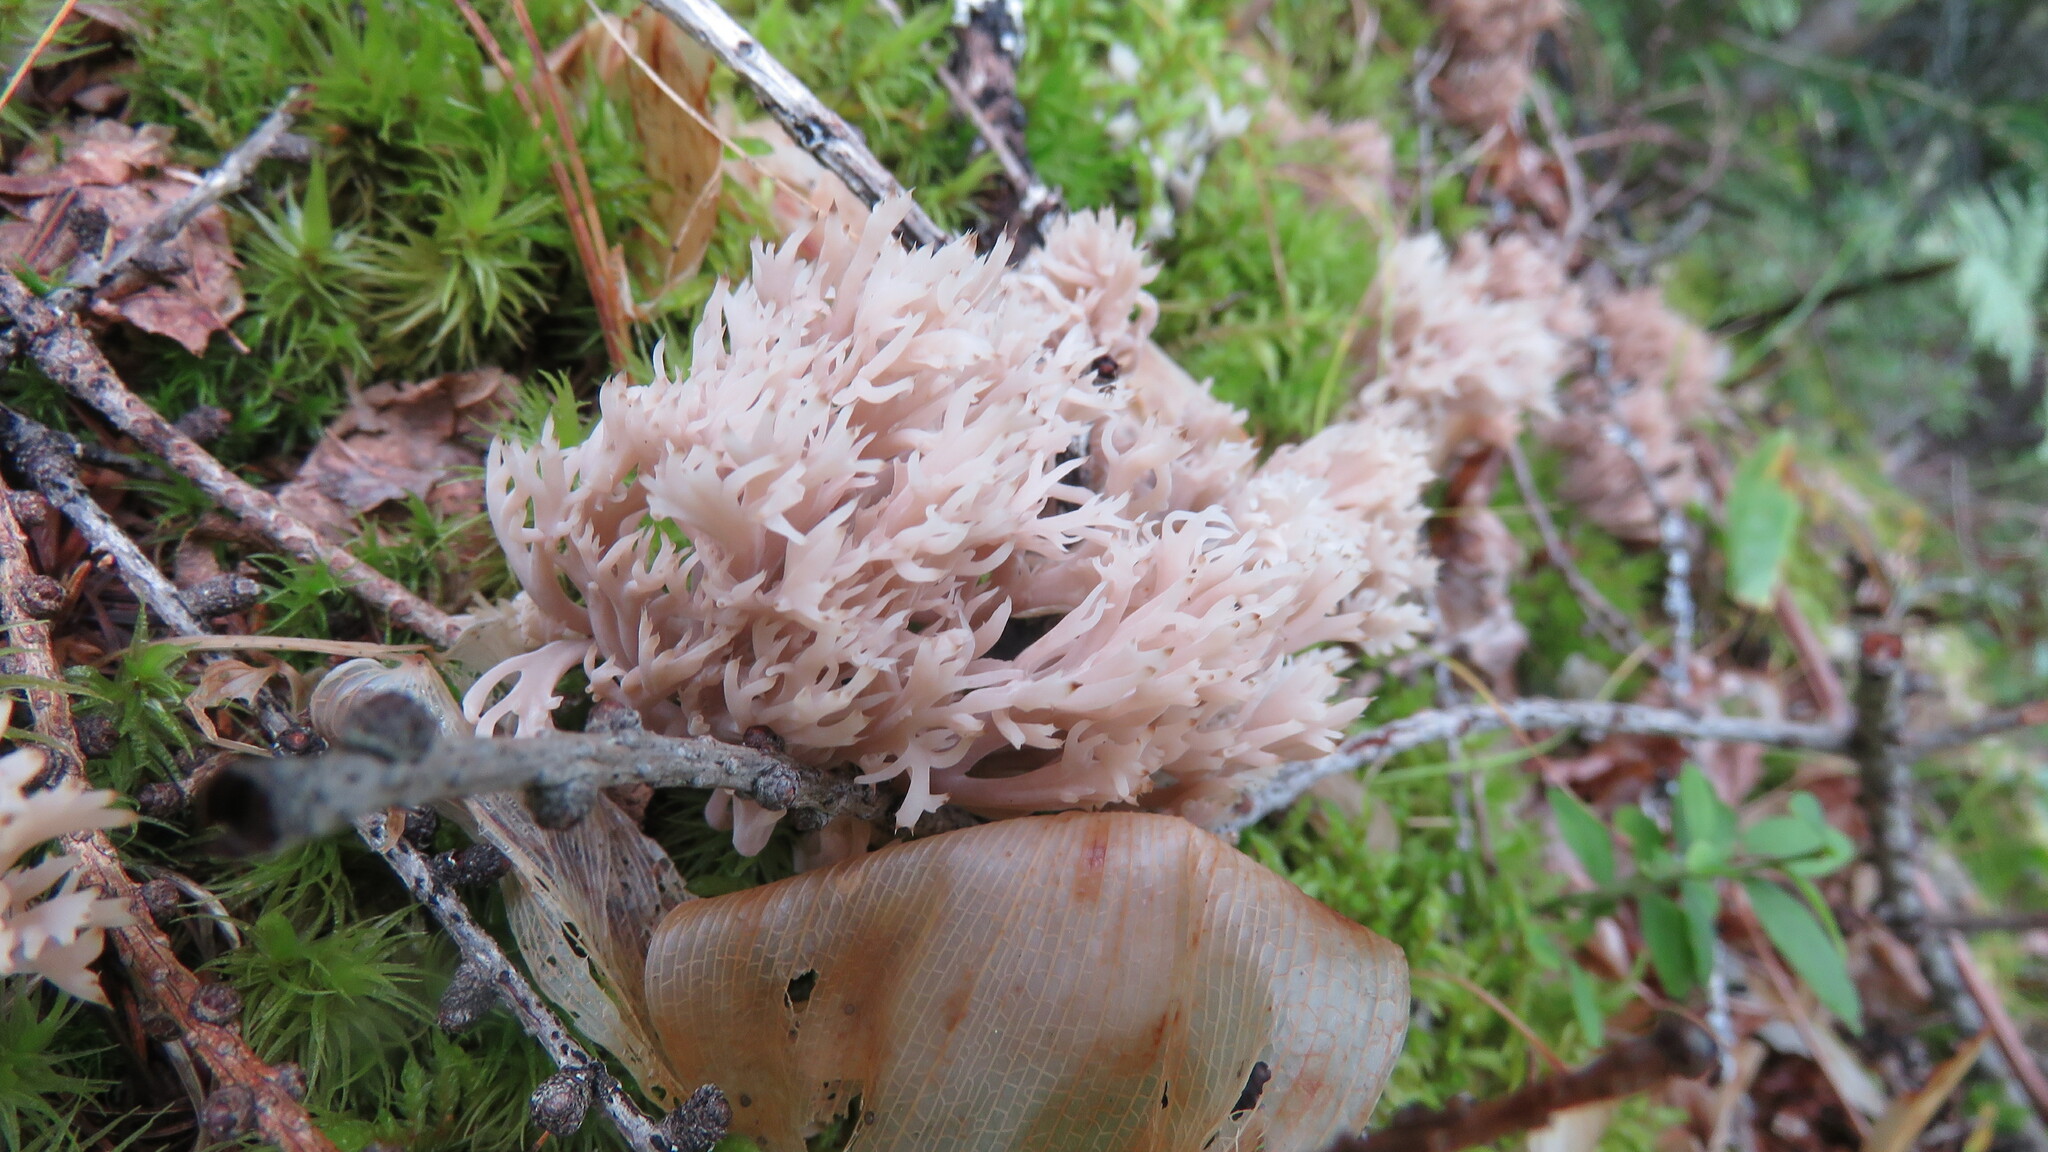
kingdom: Fungi
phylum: Basidiomycota
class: Agaricomycetes
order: Cantharellales
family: Hydnaceae
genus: Clavulina
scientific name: Clavulina coralloides
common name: Crested coral
